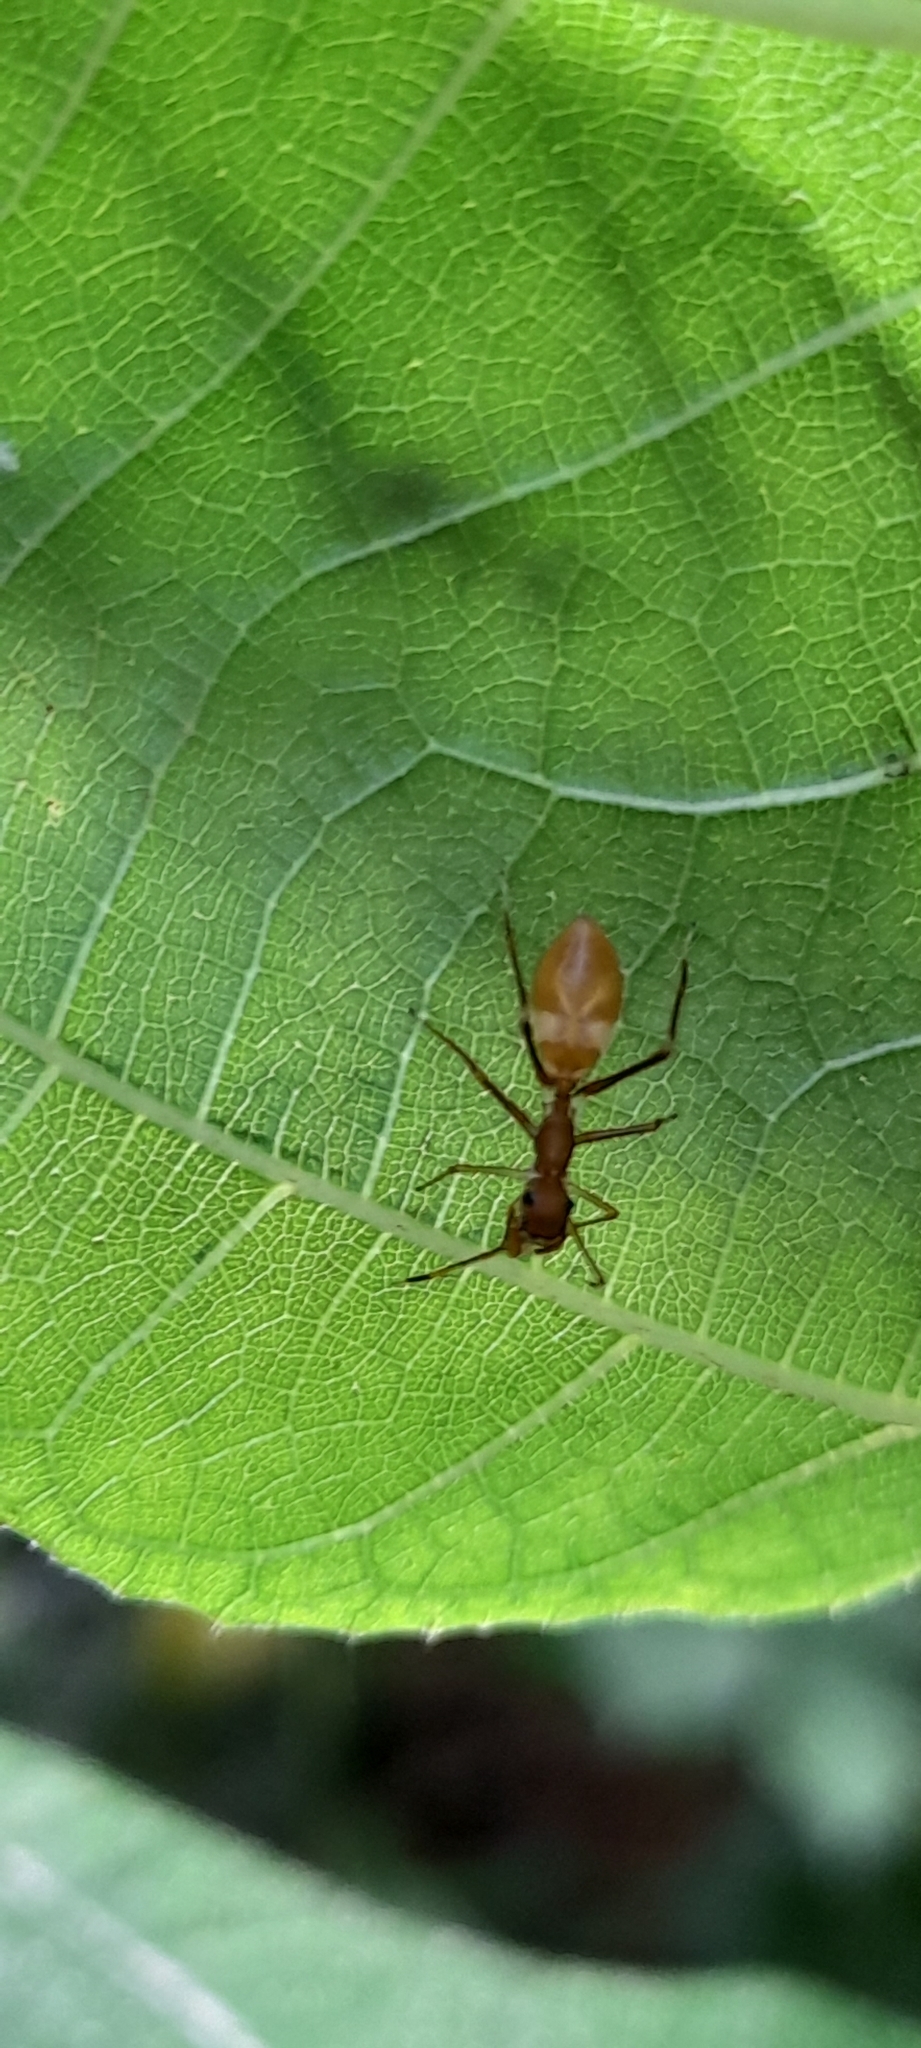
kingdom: Animalia
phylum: Arthropoda
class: Arachnida
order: Araneae
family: Salticidae
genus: Myrmaplata
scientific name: Myrmaplata plataleoides
